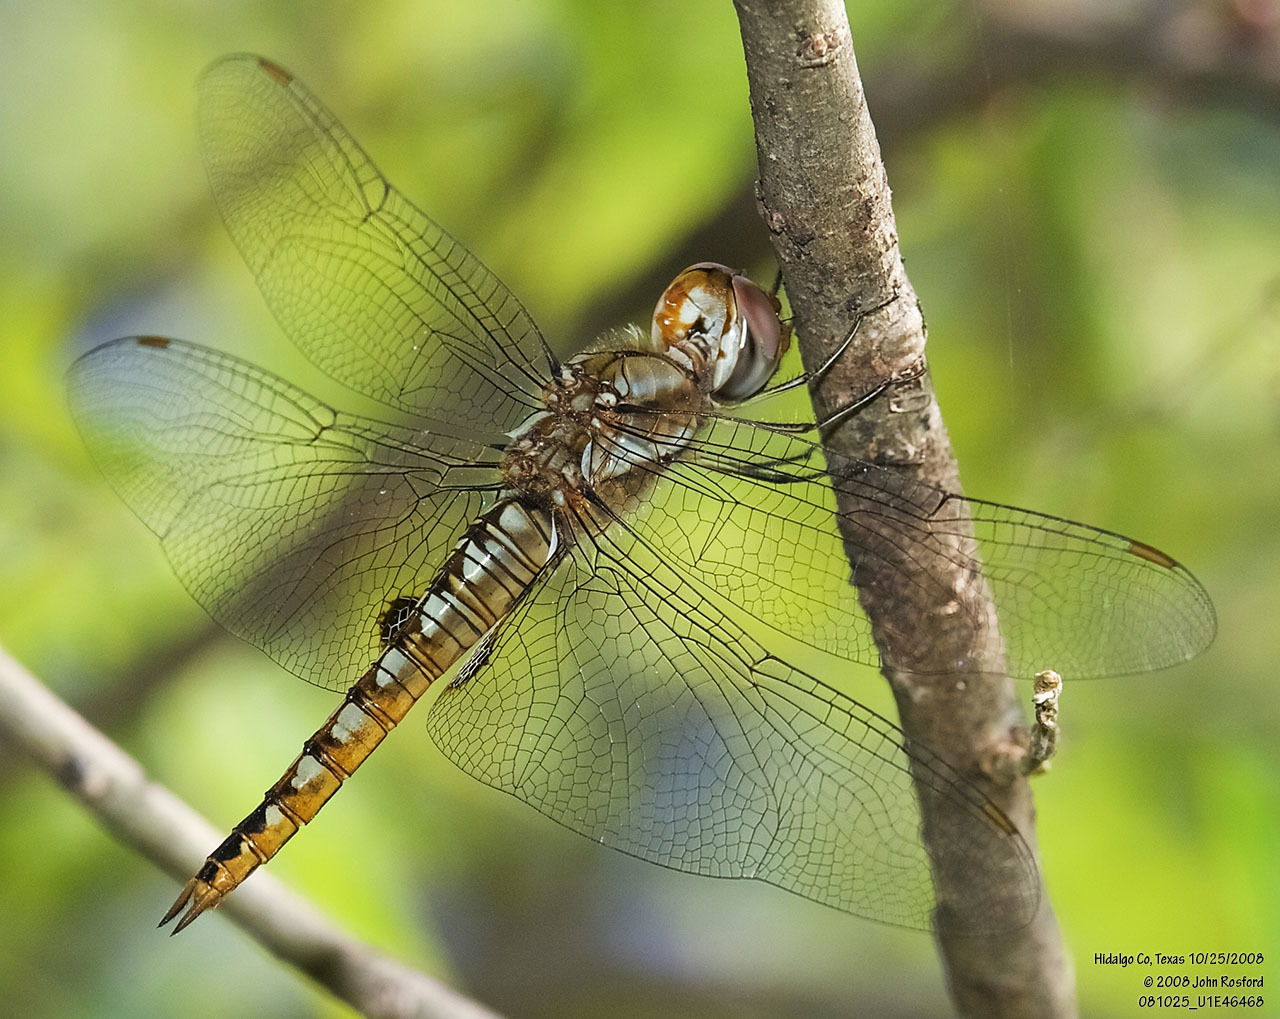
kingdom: Animalia
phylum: Arthropoda
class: Insecta
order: Odonata
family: Libellulidae
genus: Pantala
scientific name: Pantala hymenaea
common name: Spot-winged glider
